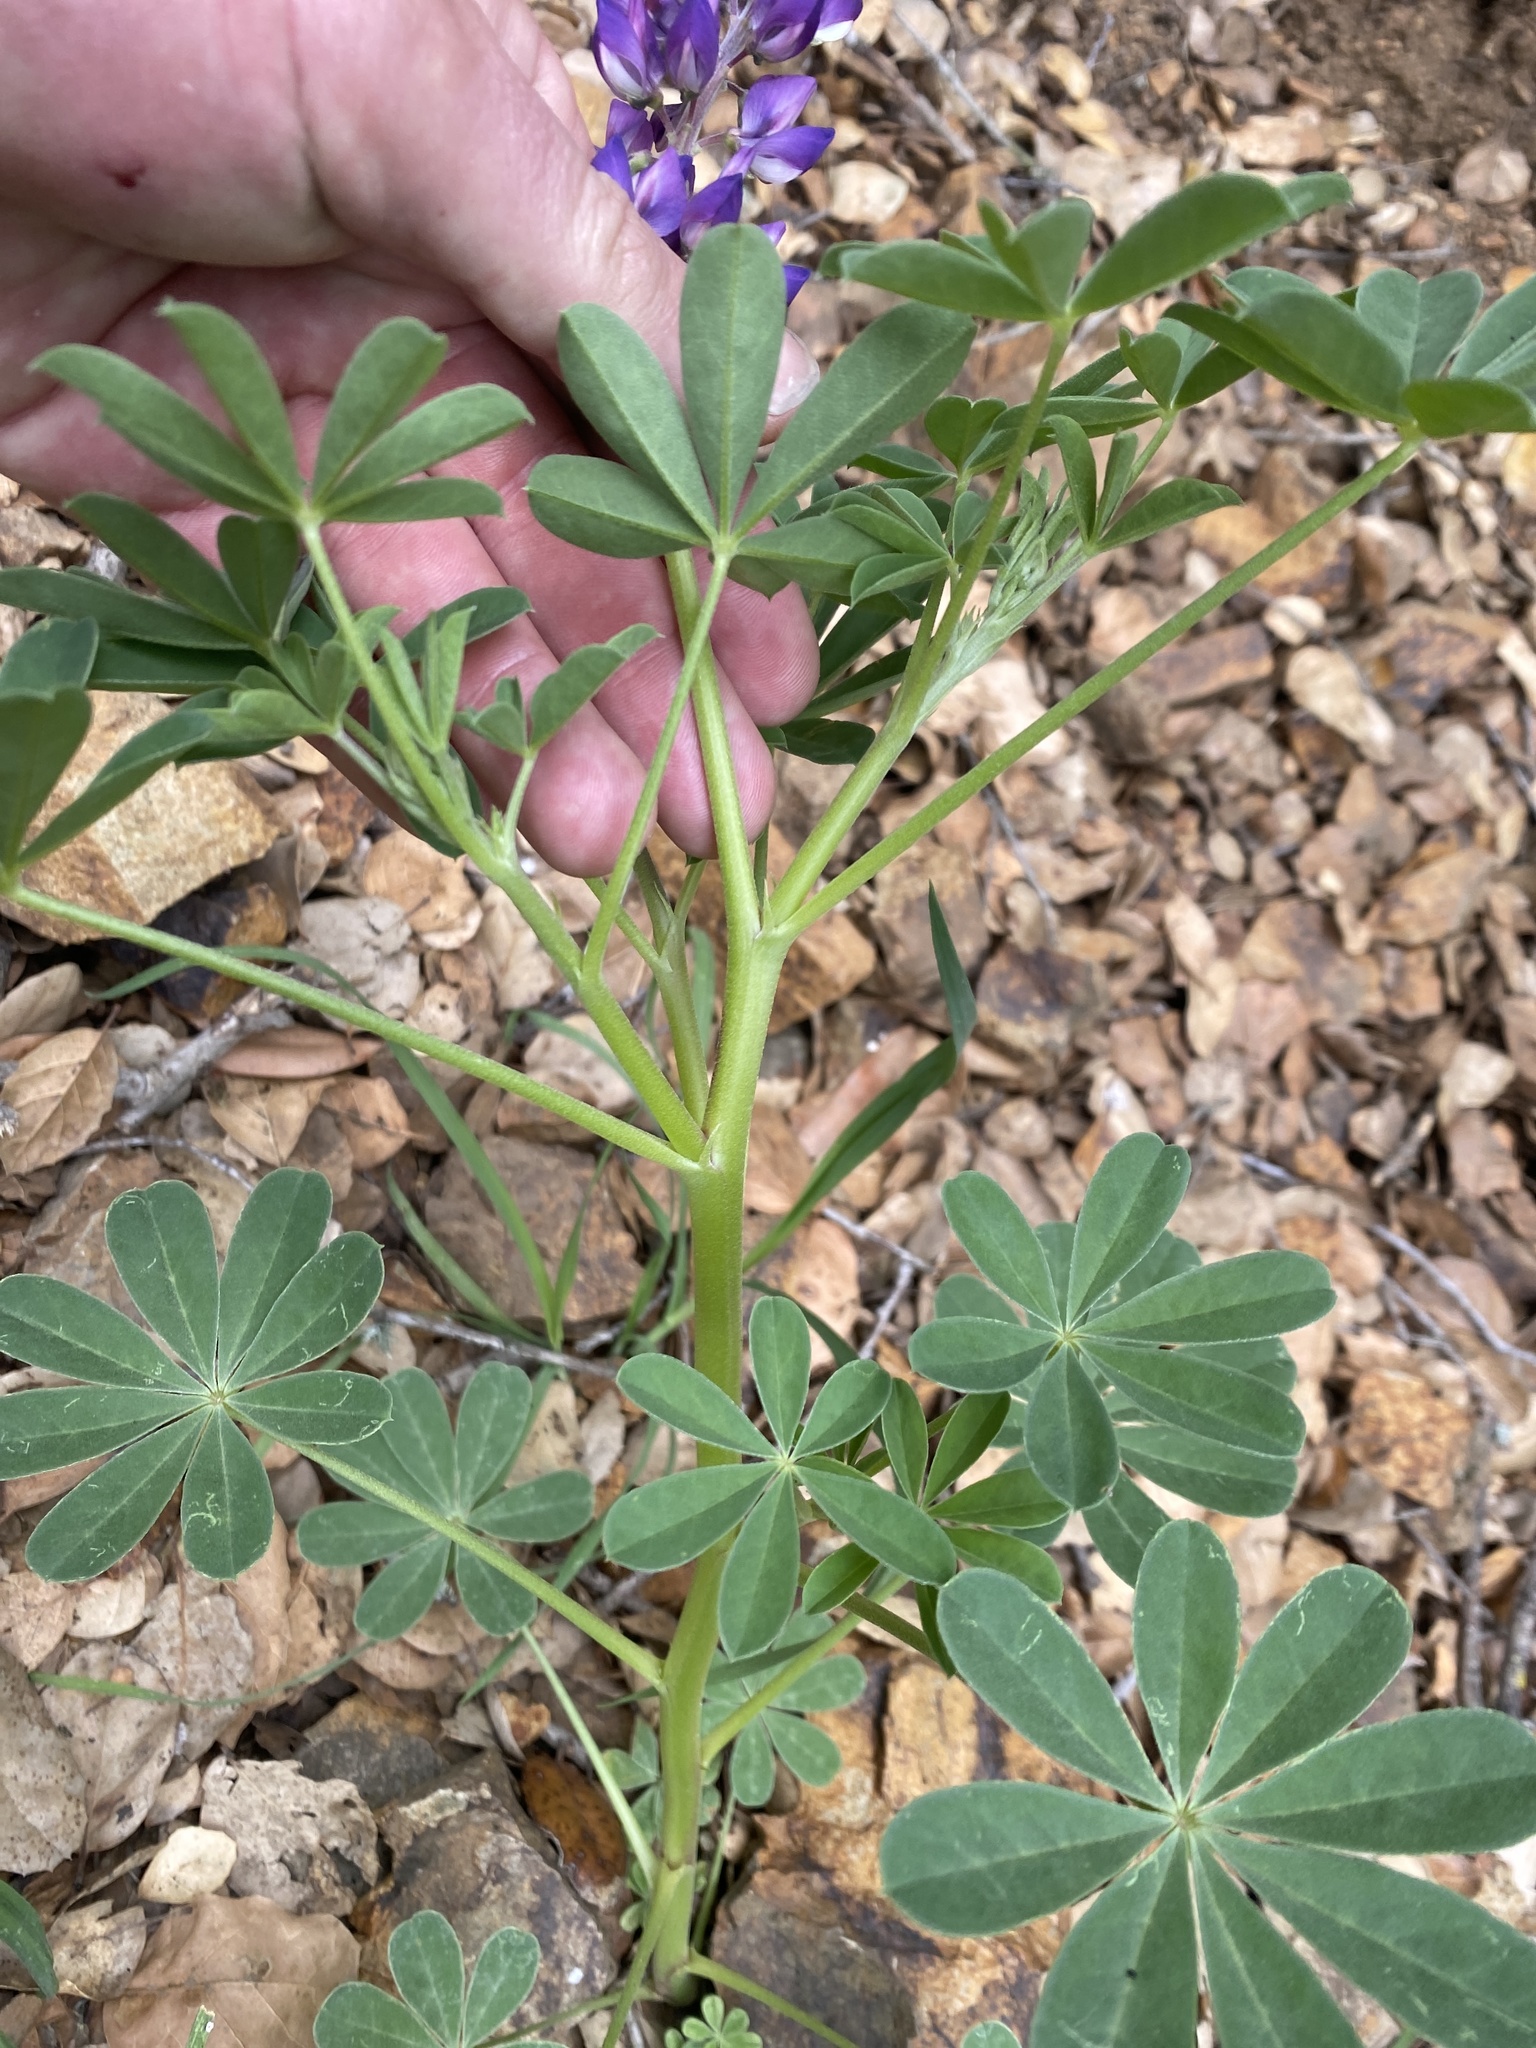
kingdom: Plantae
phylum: Tracheophyta
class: Magnoliopsida
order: Fabales
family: Fabaceae
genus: Lupinus
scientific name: Lupinus succulentus
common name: Arroyo lupine
